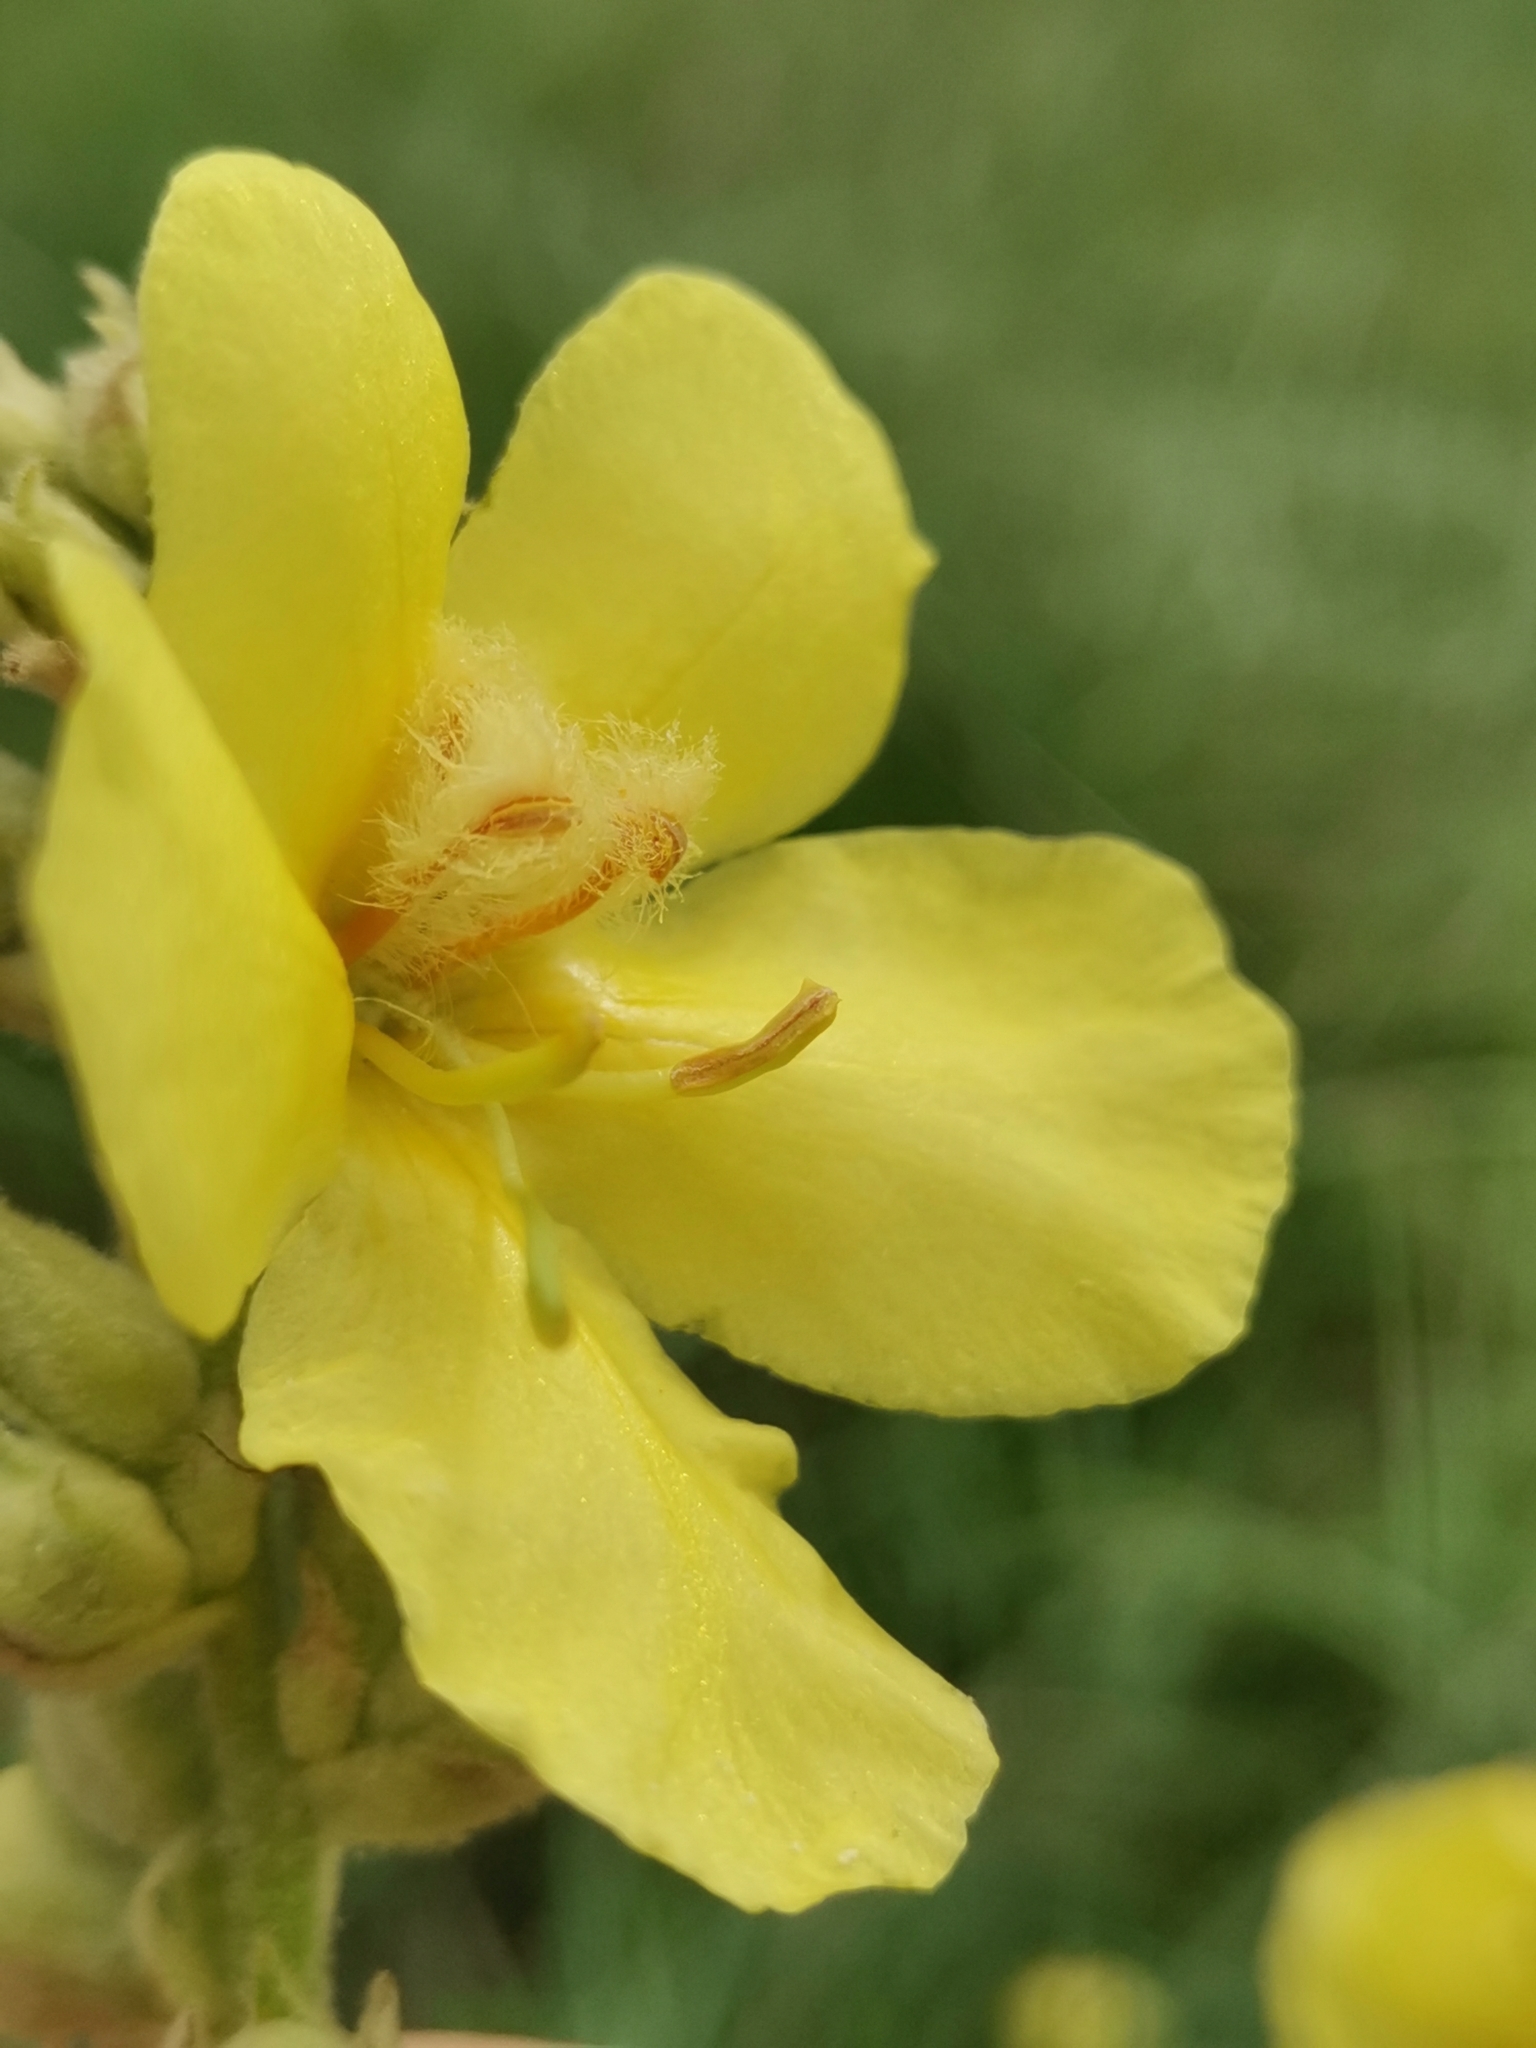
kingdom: Plantae
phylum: Tracheophyta
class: Magnoliopsida
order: Lamiales
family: Scrophulariaceae
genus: Verbascum
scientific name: Verbascum phlomoides
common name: Orange mullein
